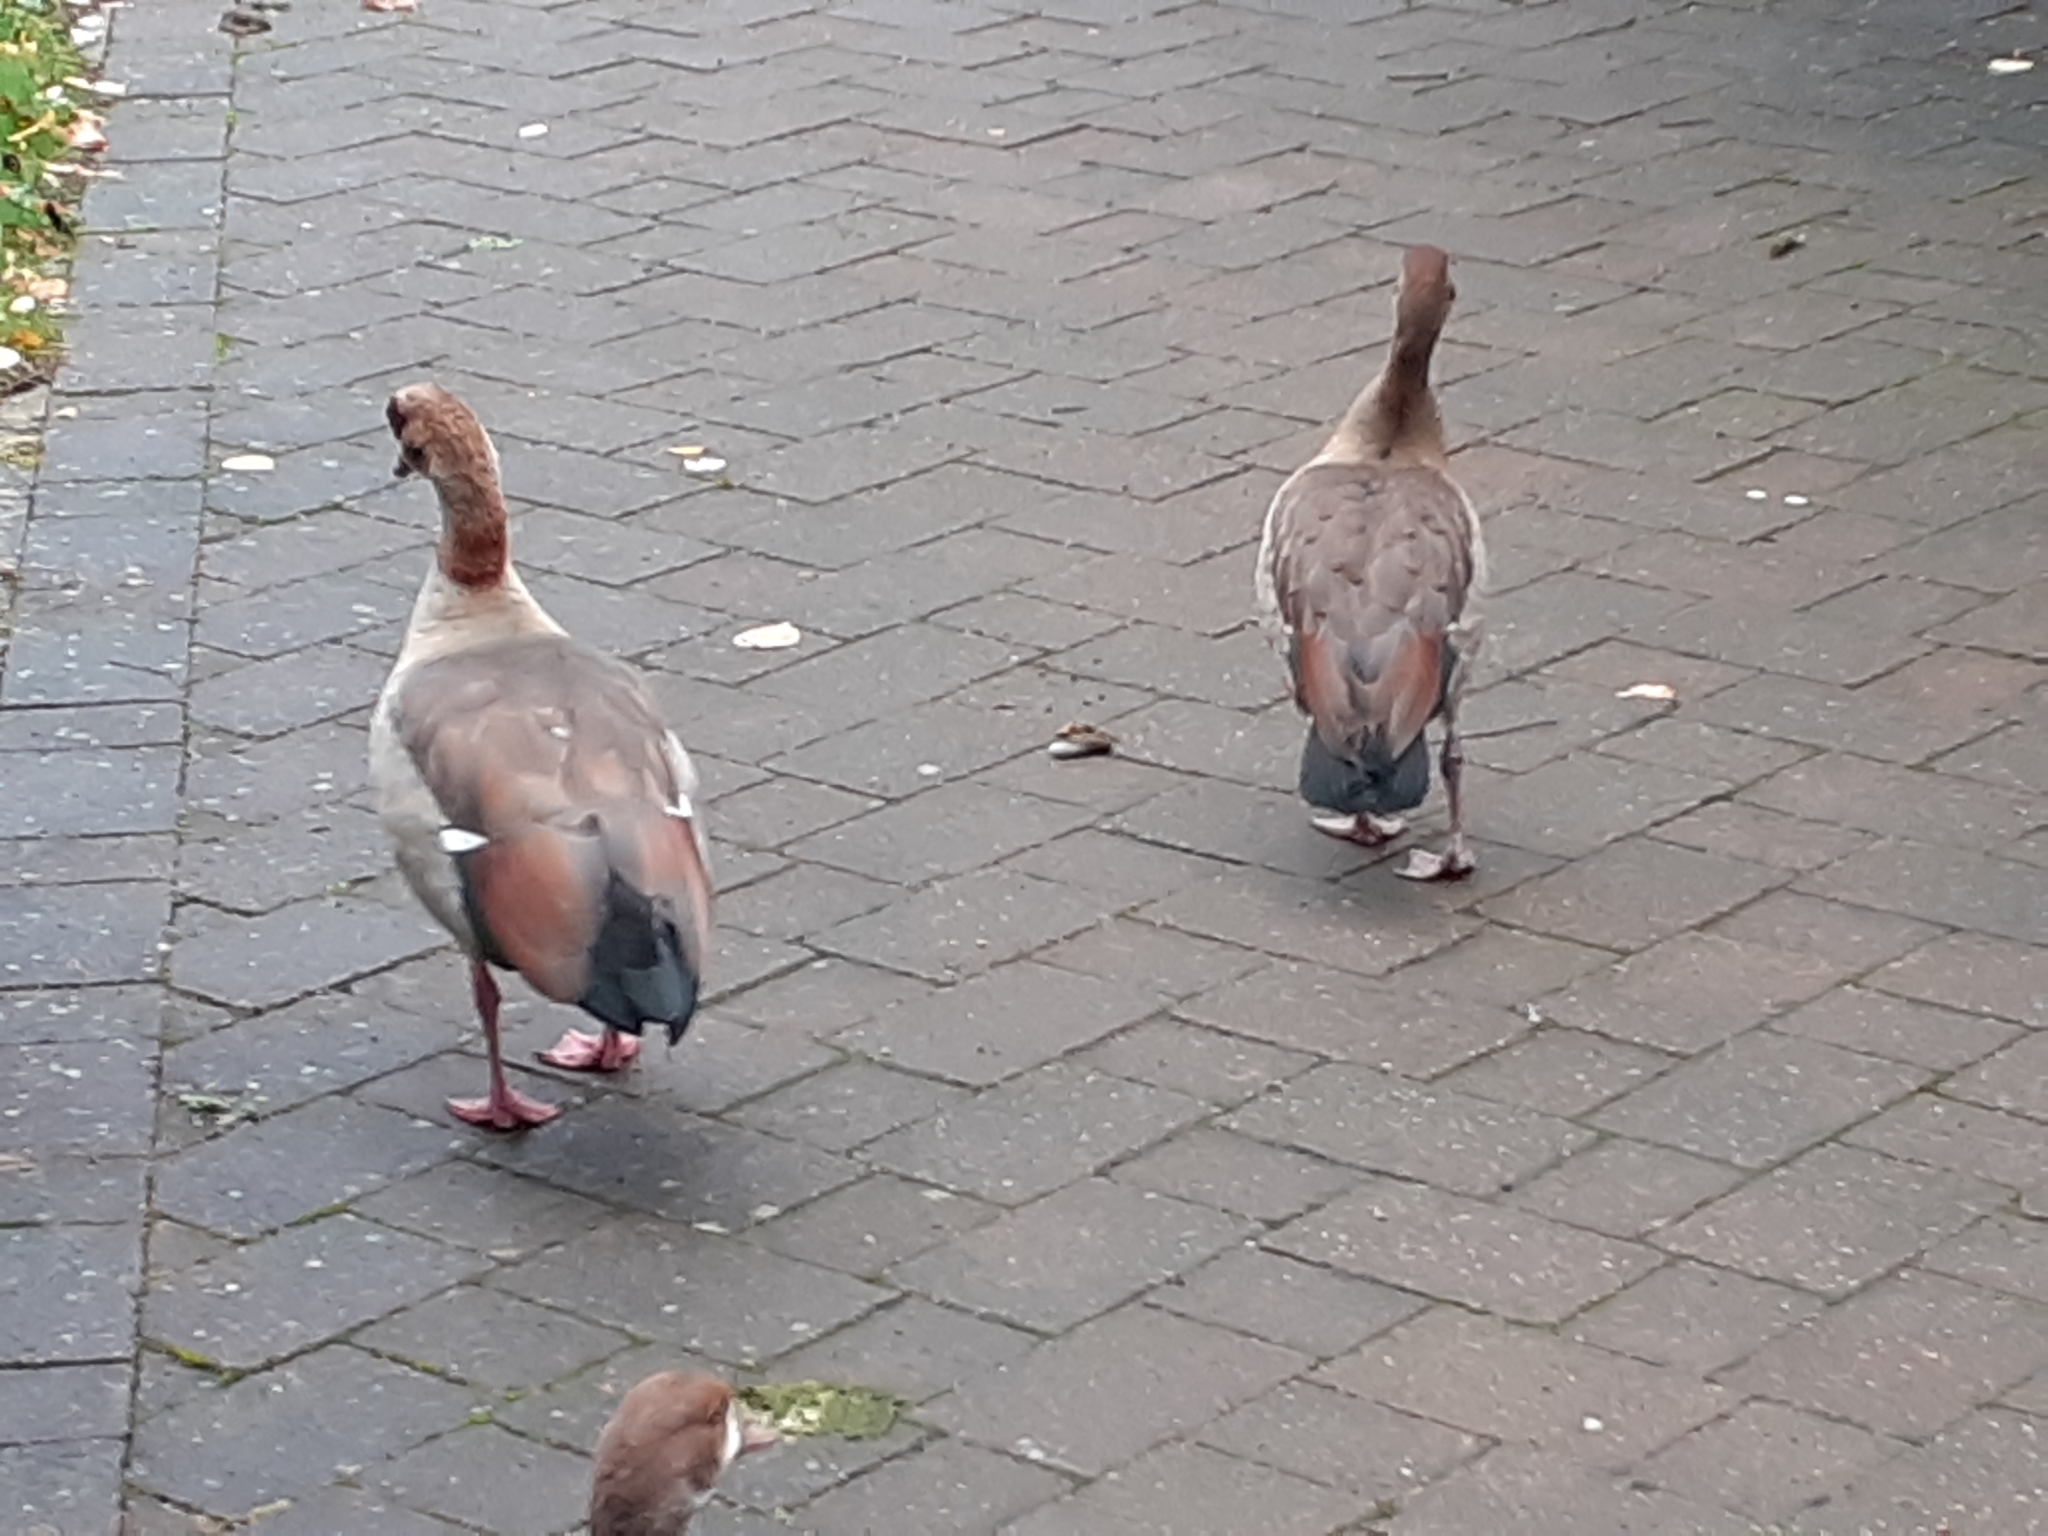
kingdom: Animalia
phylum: Chordata
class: Aves
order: Anseriformes
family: Anatidae
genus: Alopochen
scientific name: Alopochen aegyptiaca
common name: Egyptian goose
